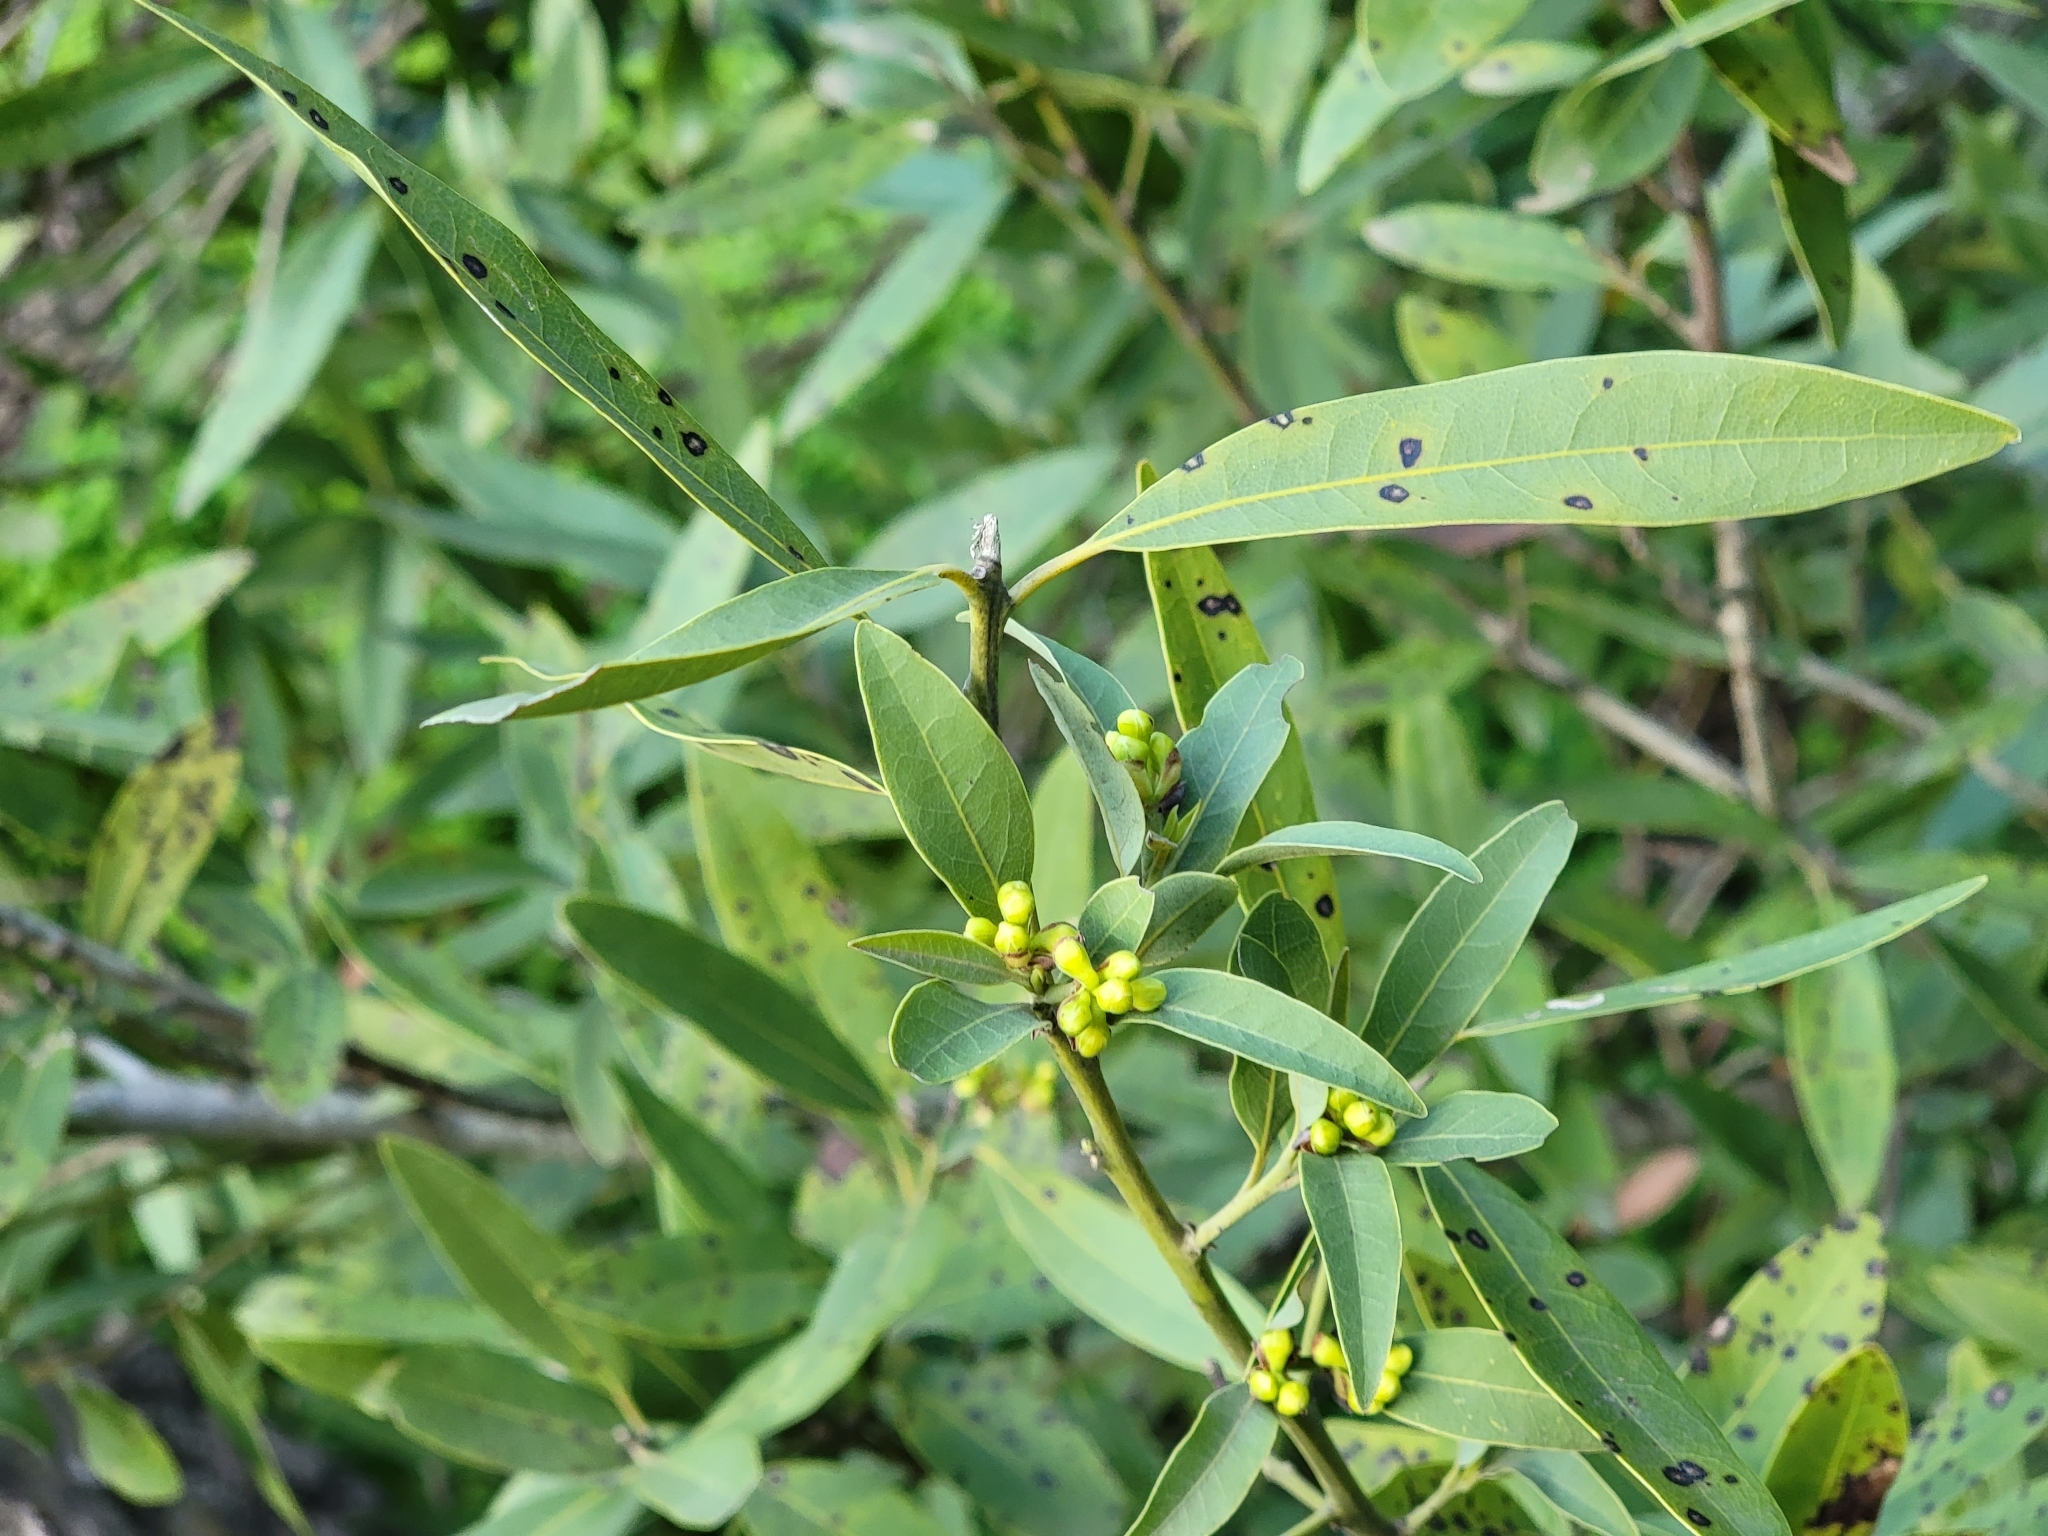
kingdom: Plantae
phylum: Tracheophyta
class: Magnoliopsida
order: Laurales
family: Lauraceae
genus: Umbellularia
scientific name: Umbellularia californica
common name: California bay
